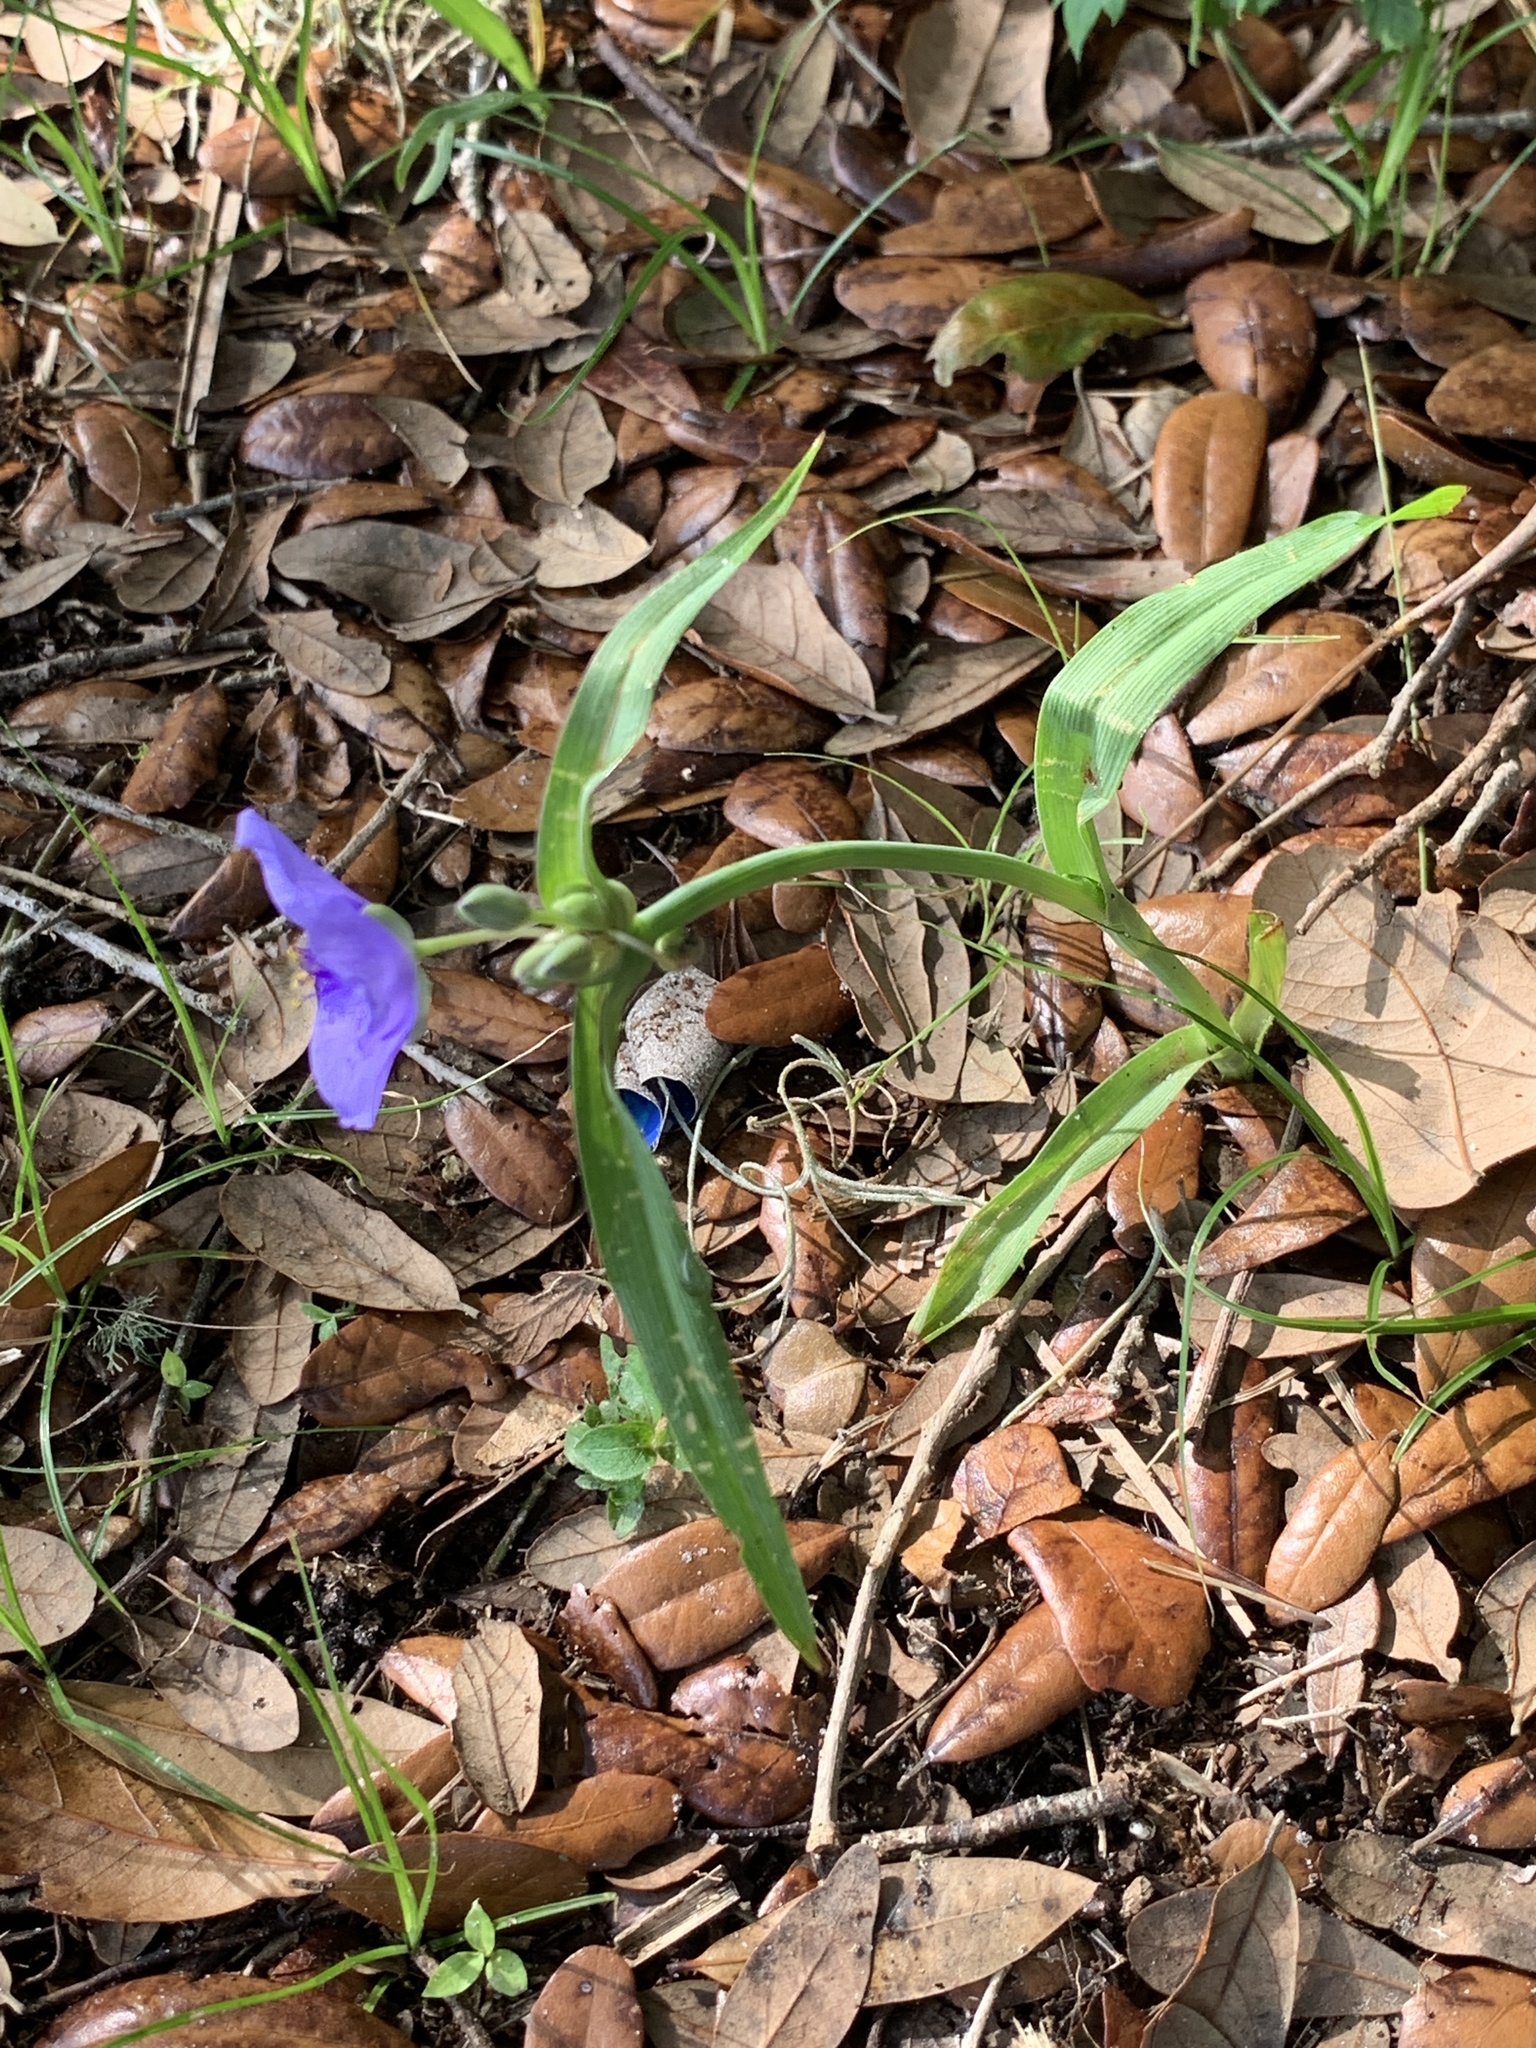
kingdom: Plantae
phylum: Tracheophyta
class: Liliopsida
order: Commelinales
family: Commelinaceae
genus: Tradescantia
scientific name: Tradescantia ohiensis
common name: Ohio spiderwort
